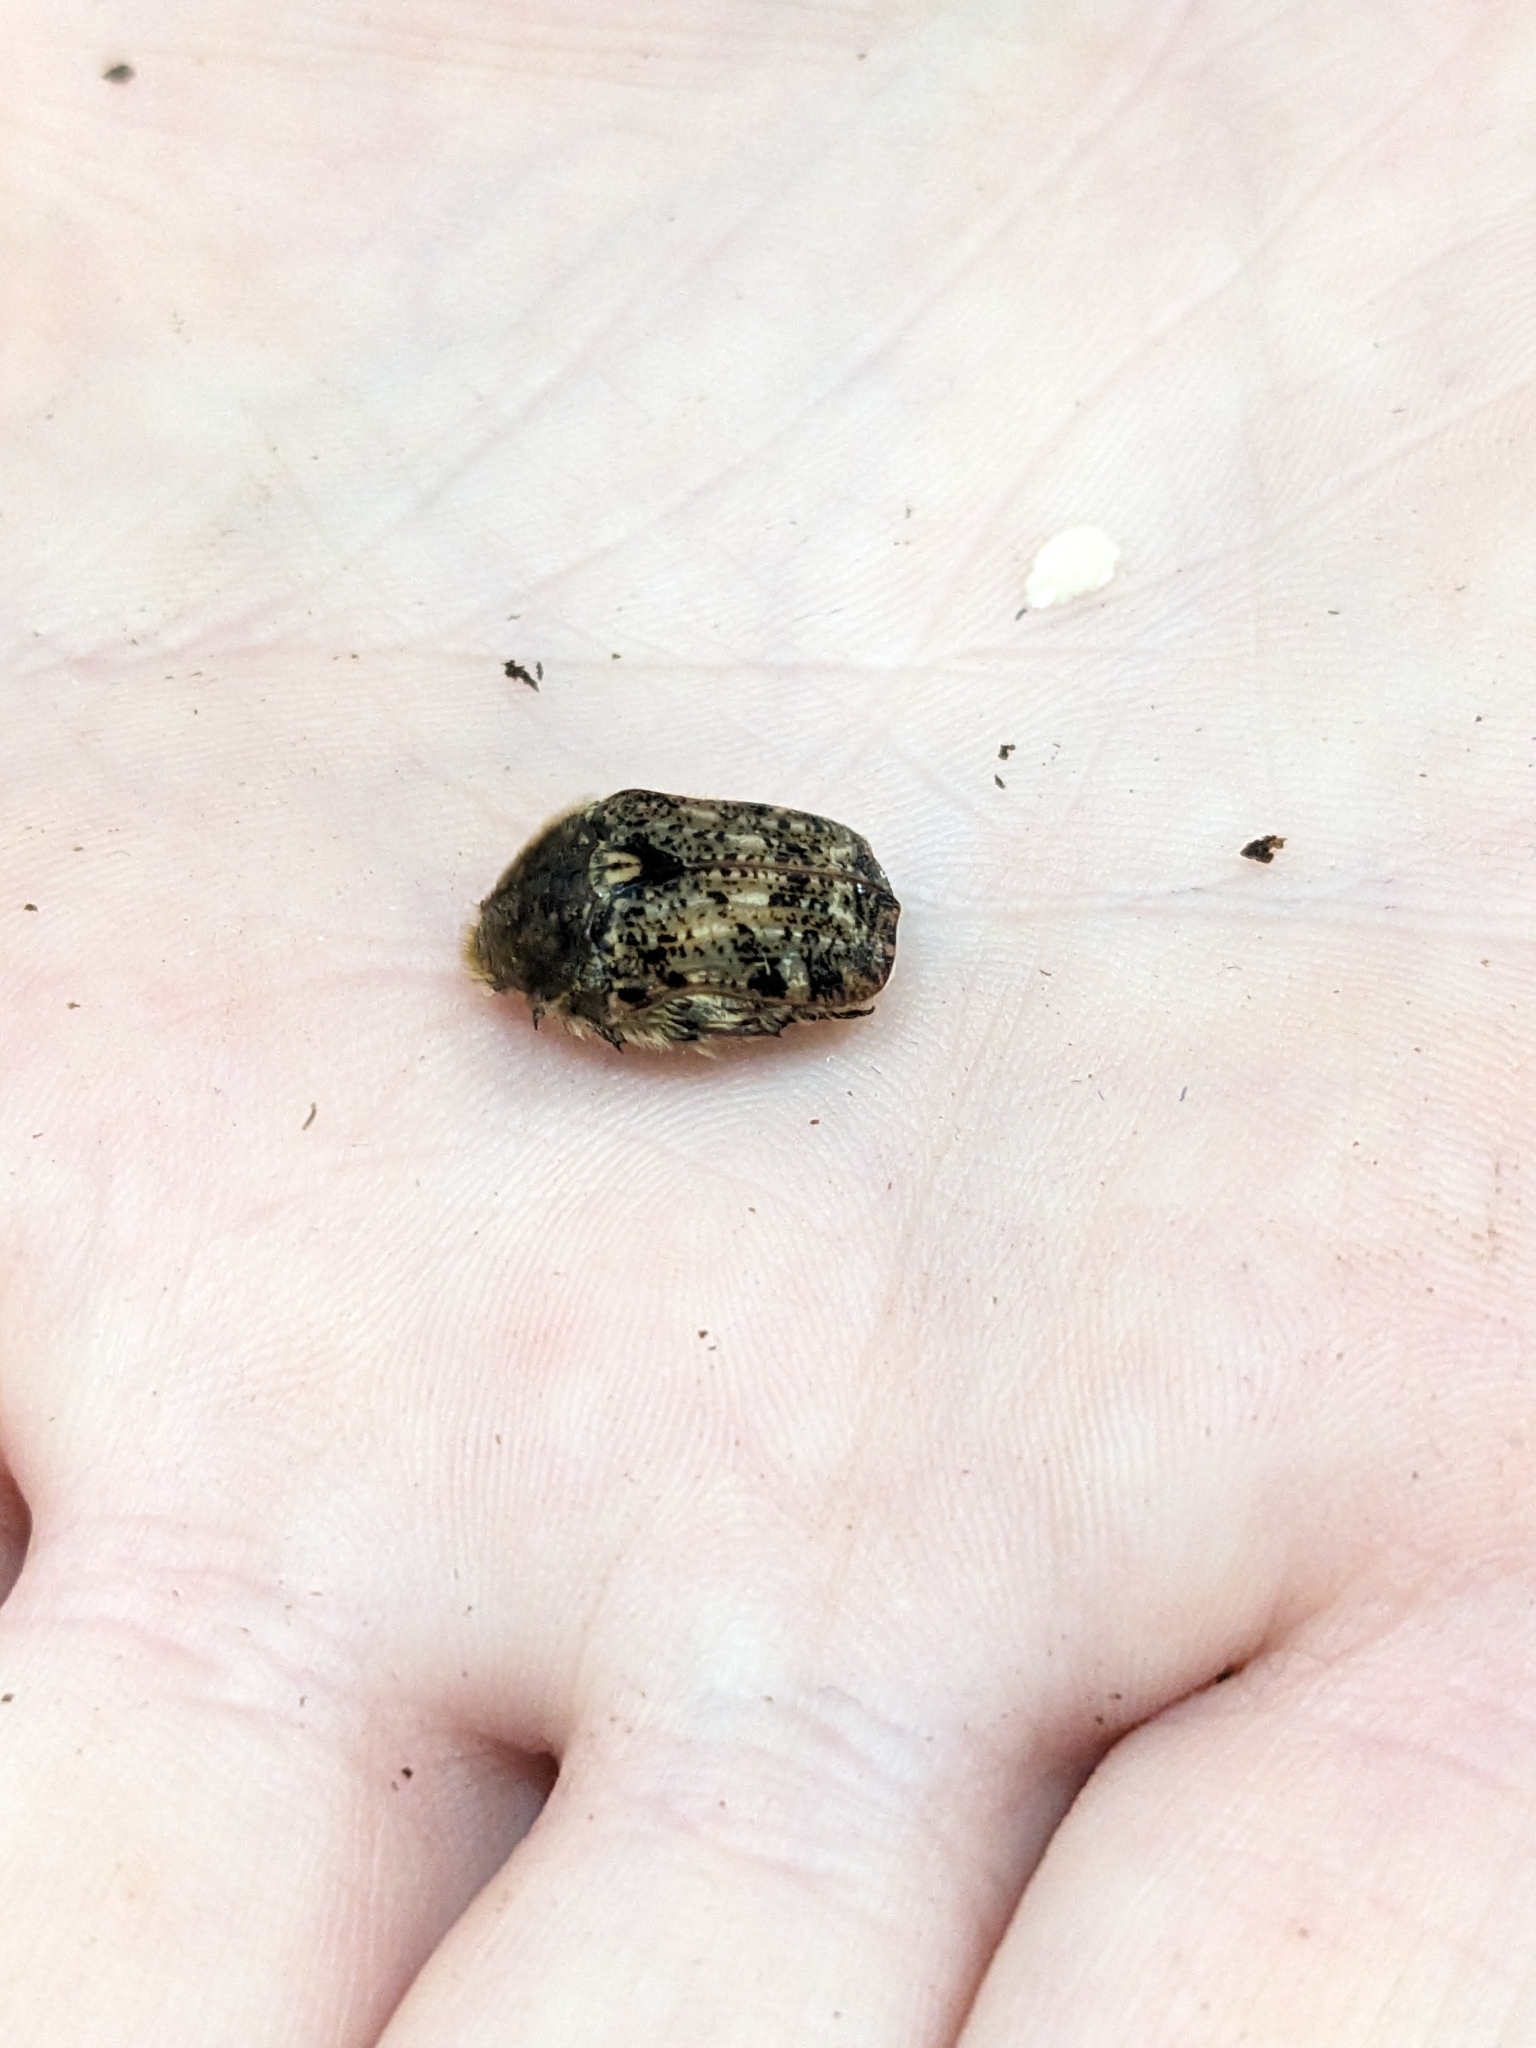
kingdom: Animalia
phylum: Arthropoda
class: Insecta
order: Coleoptera
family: Scarabaeidae
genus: Euphoria
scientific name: Euphoria inda
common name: Bumble flower beetle
